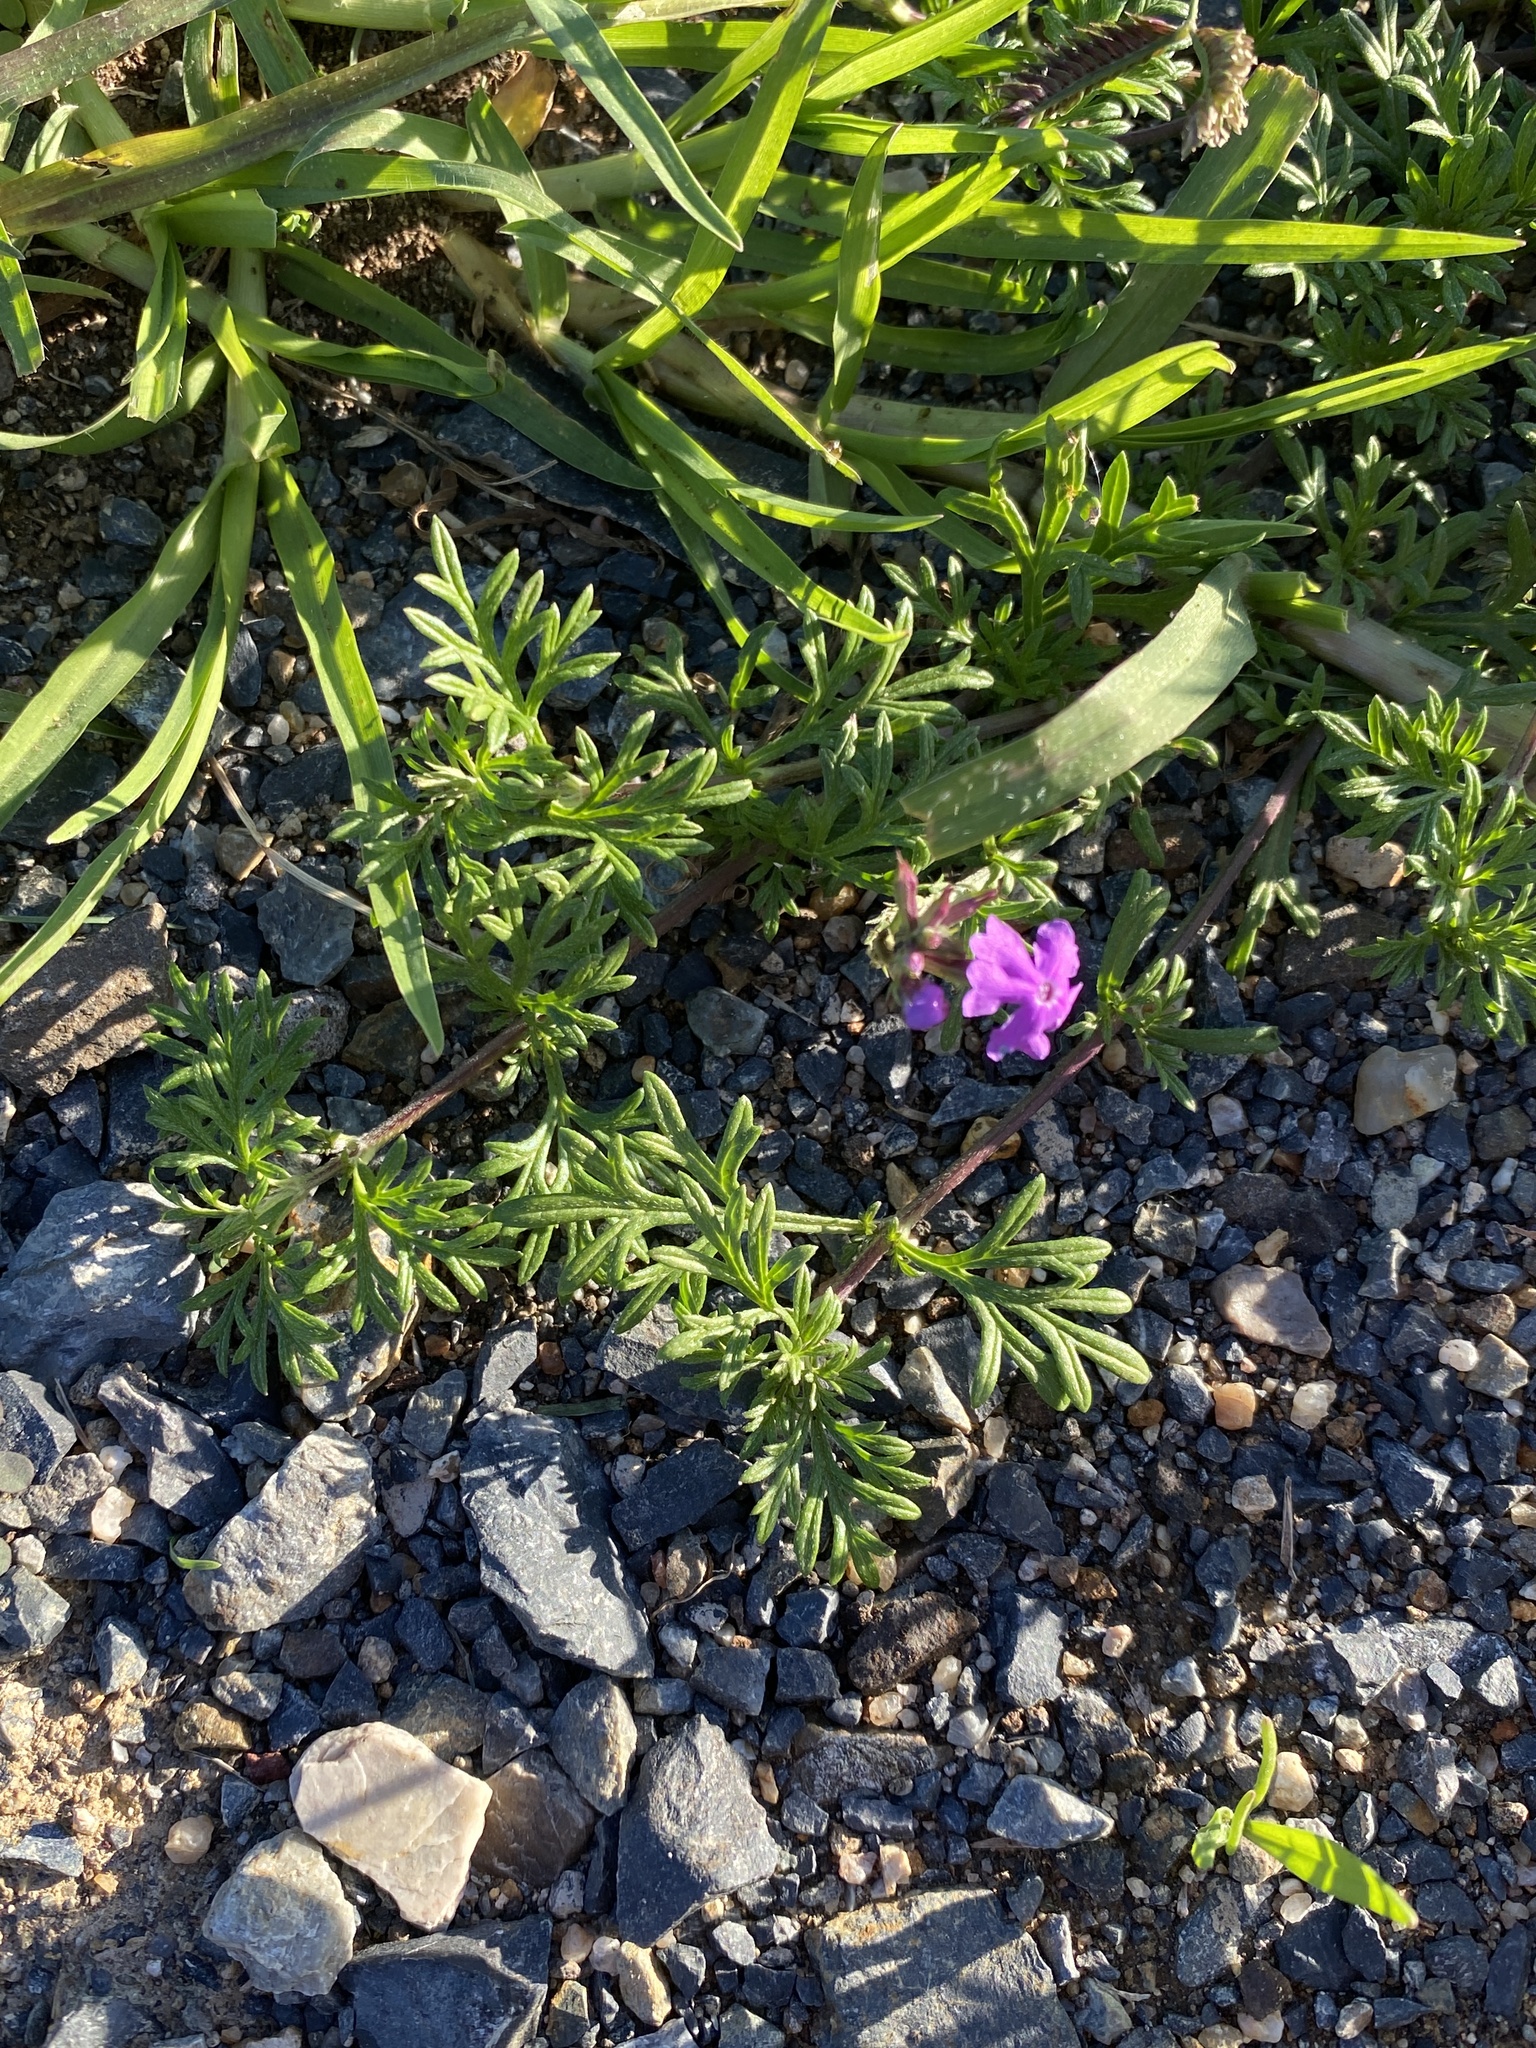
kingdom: Plantae
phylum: Tracheophyta
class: Magnoliopsida
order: Lamiales
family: Verbenaceae
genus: Verbena
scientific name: Verbena aristigera
